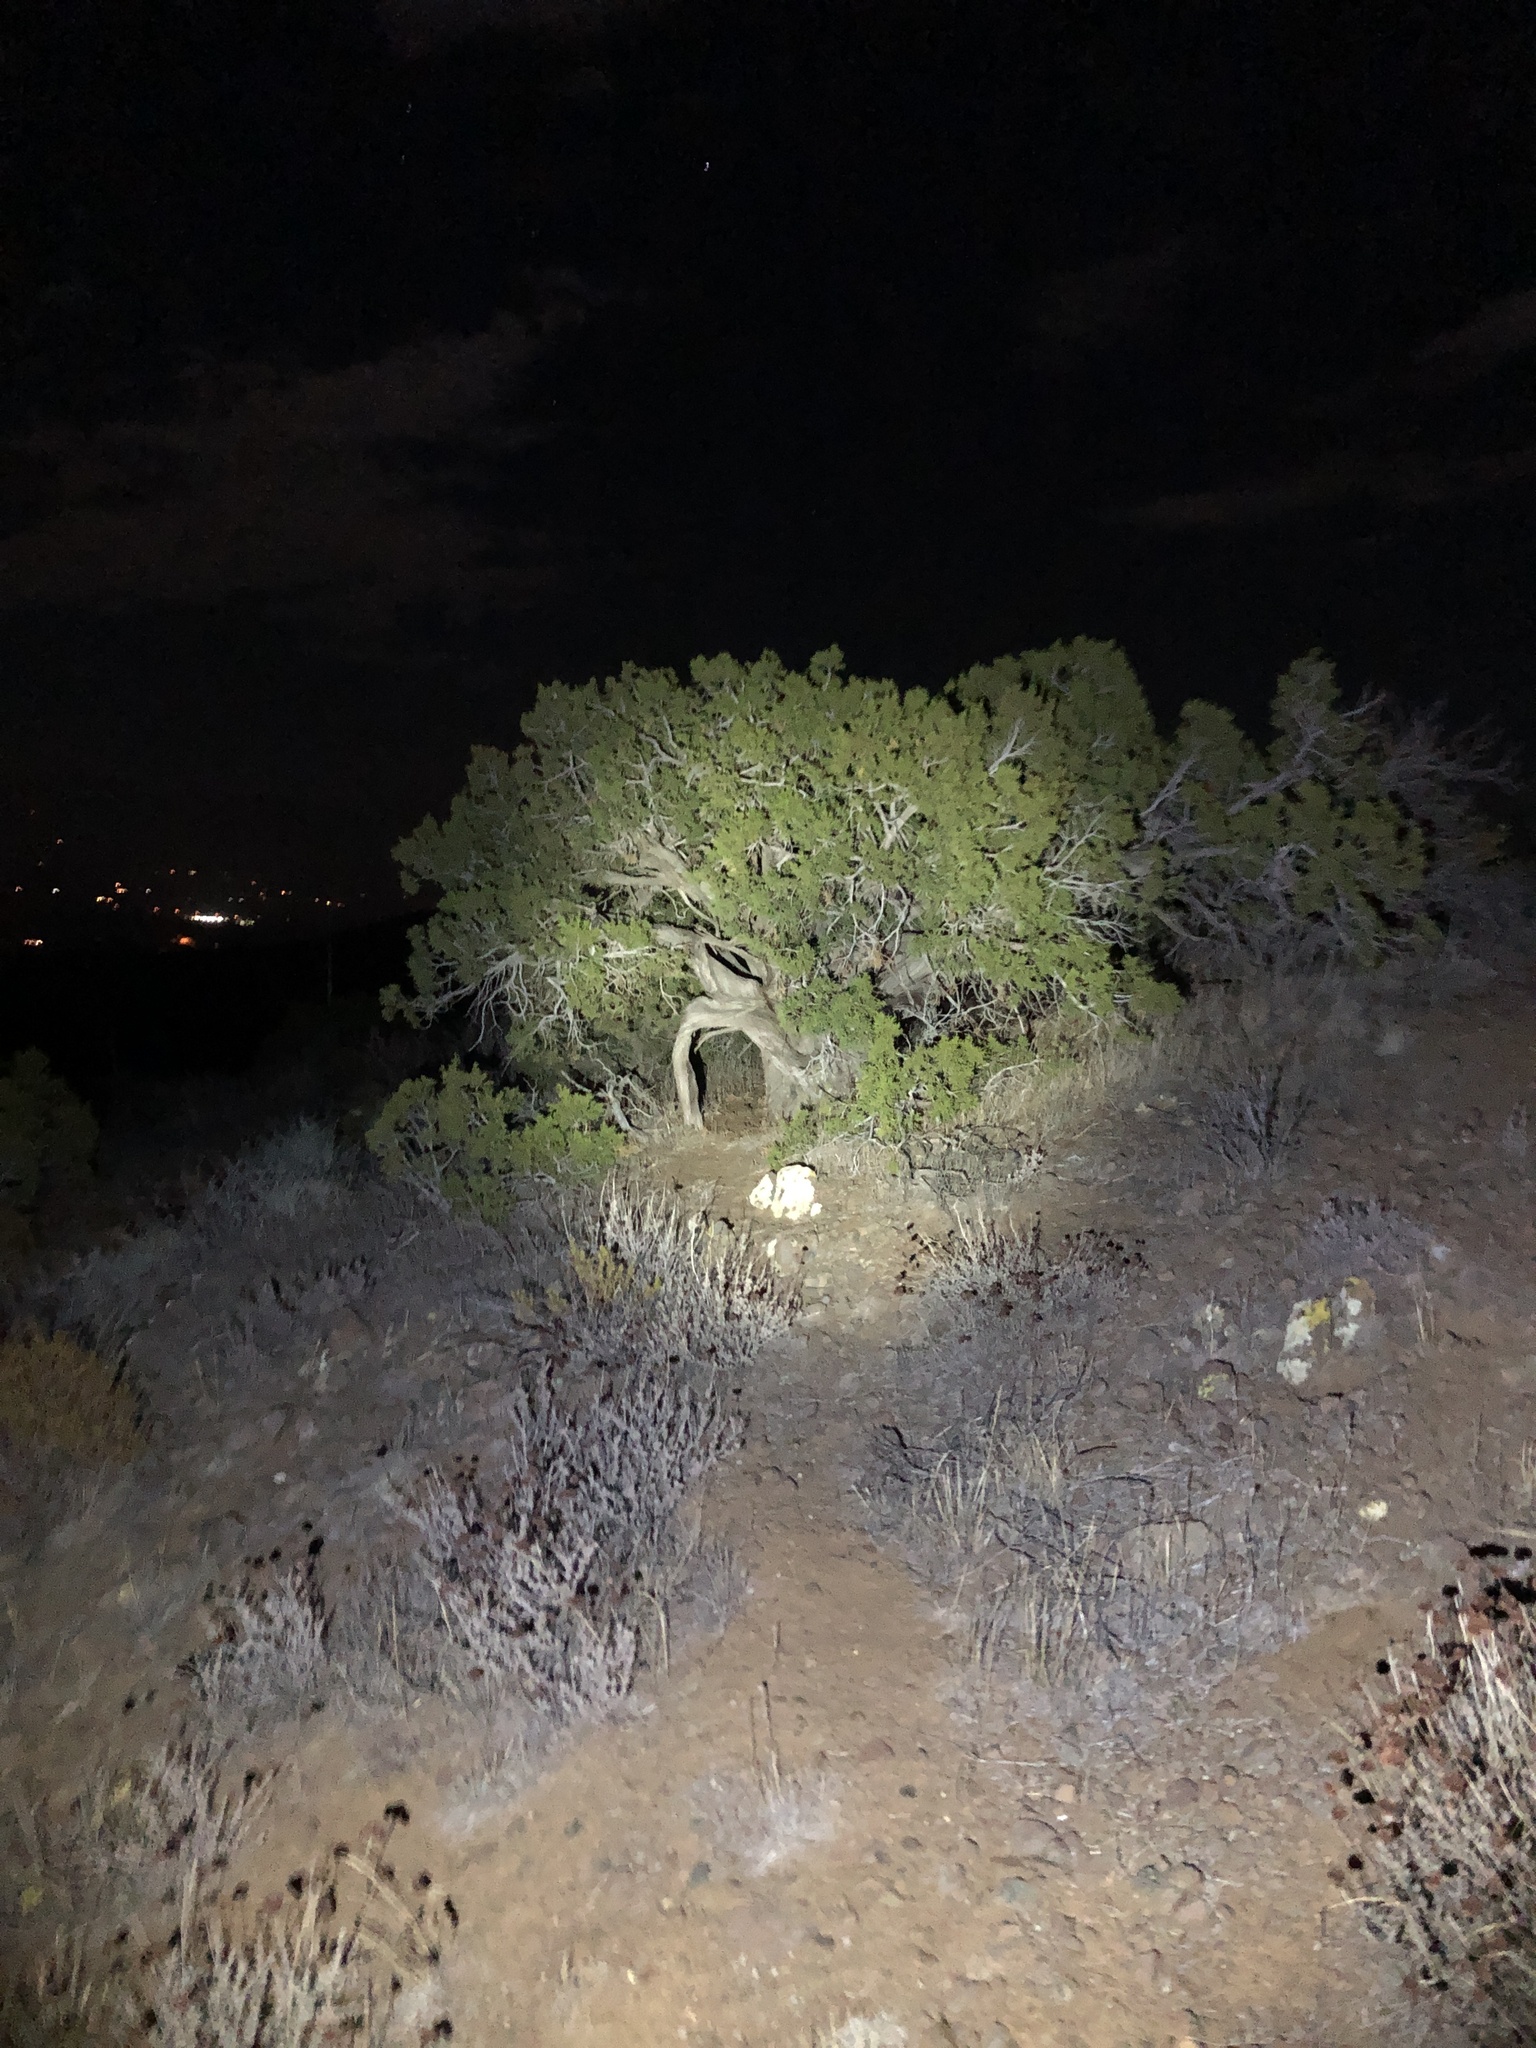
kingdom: Plantae
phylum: Tracheophyta
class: Pinopsida
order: Pinales
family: Cupressaceae
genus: Juniperus
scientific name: Juniperus californica
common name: California juniper
